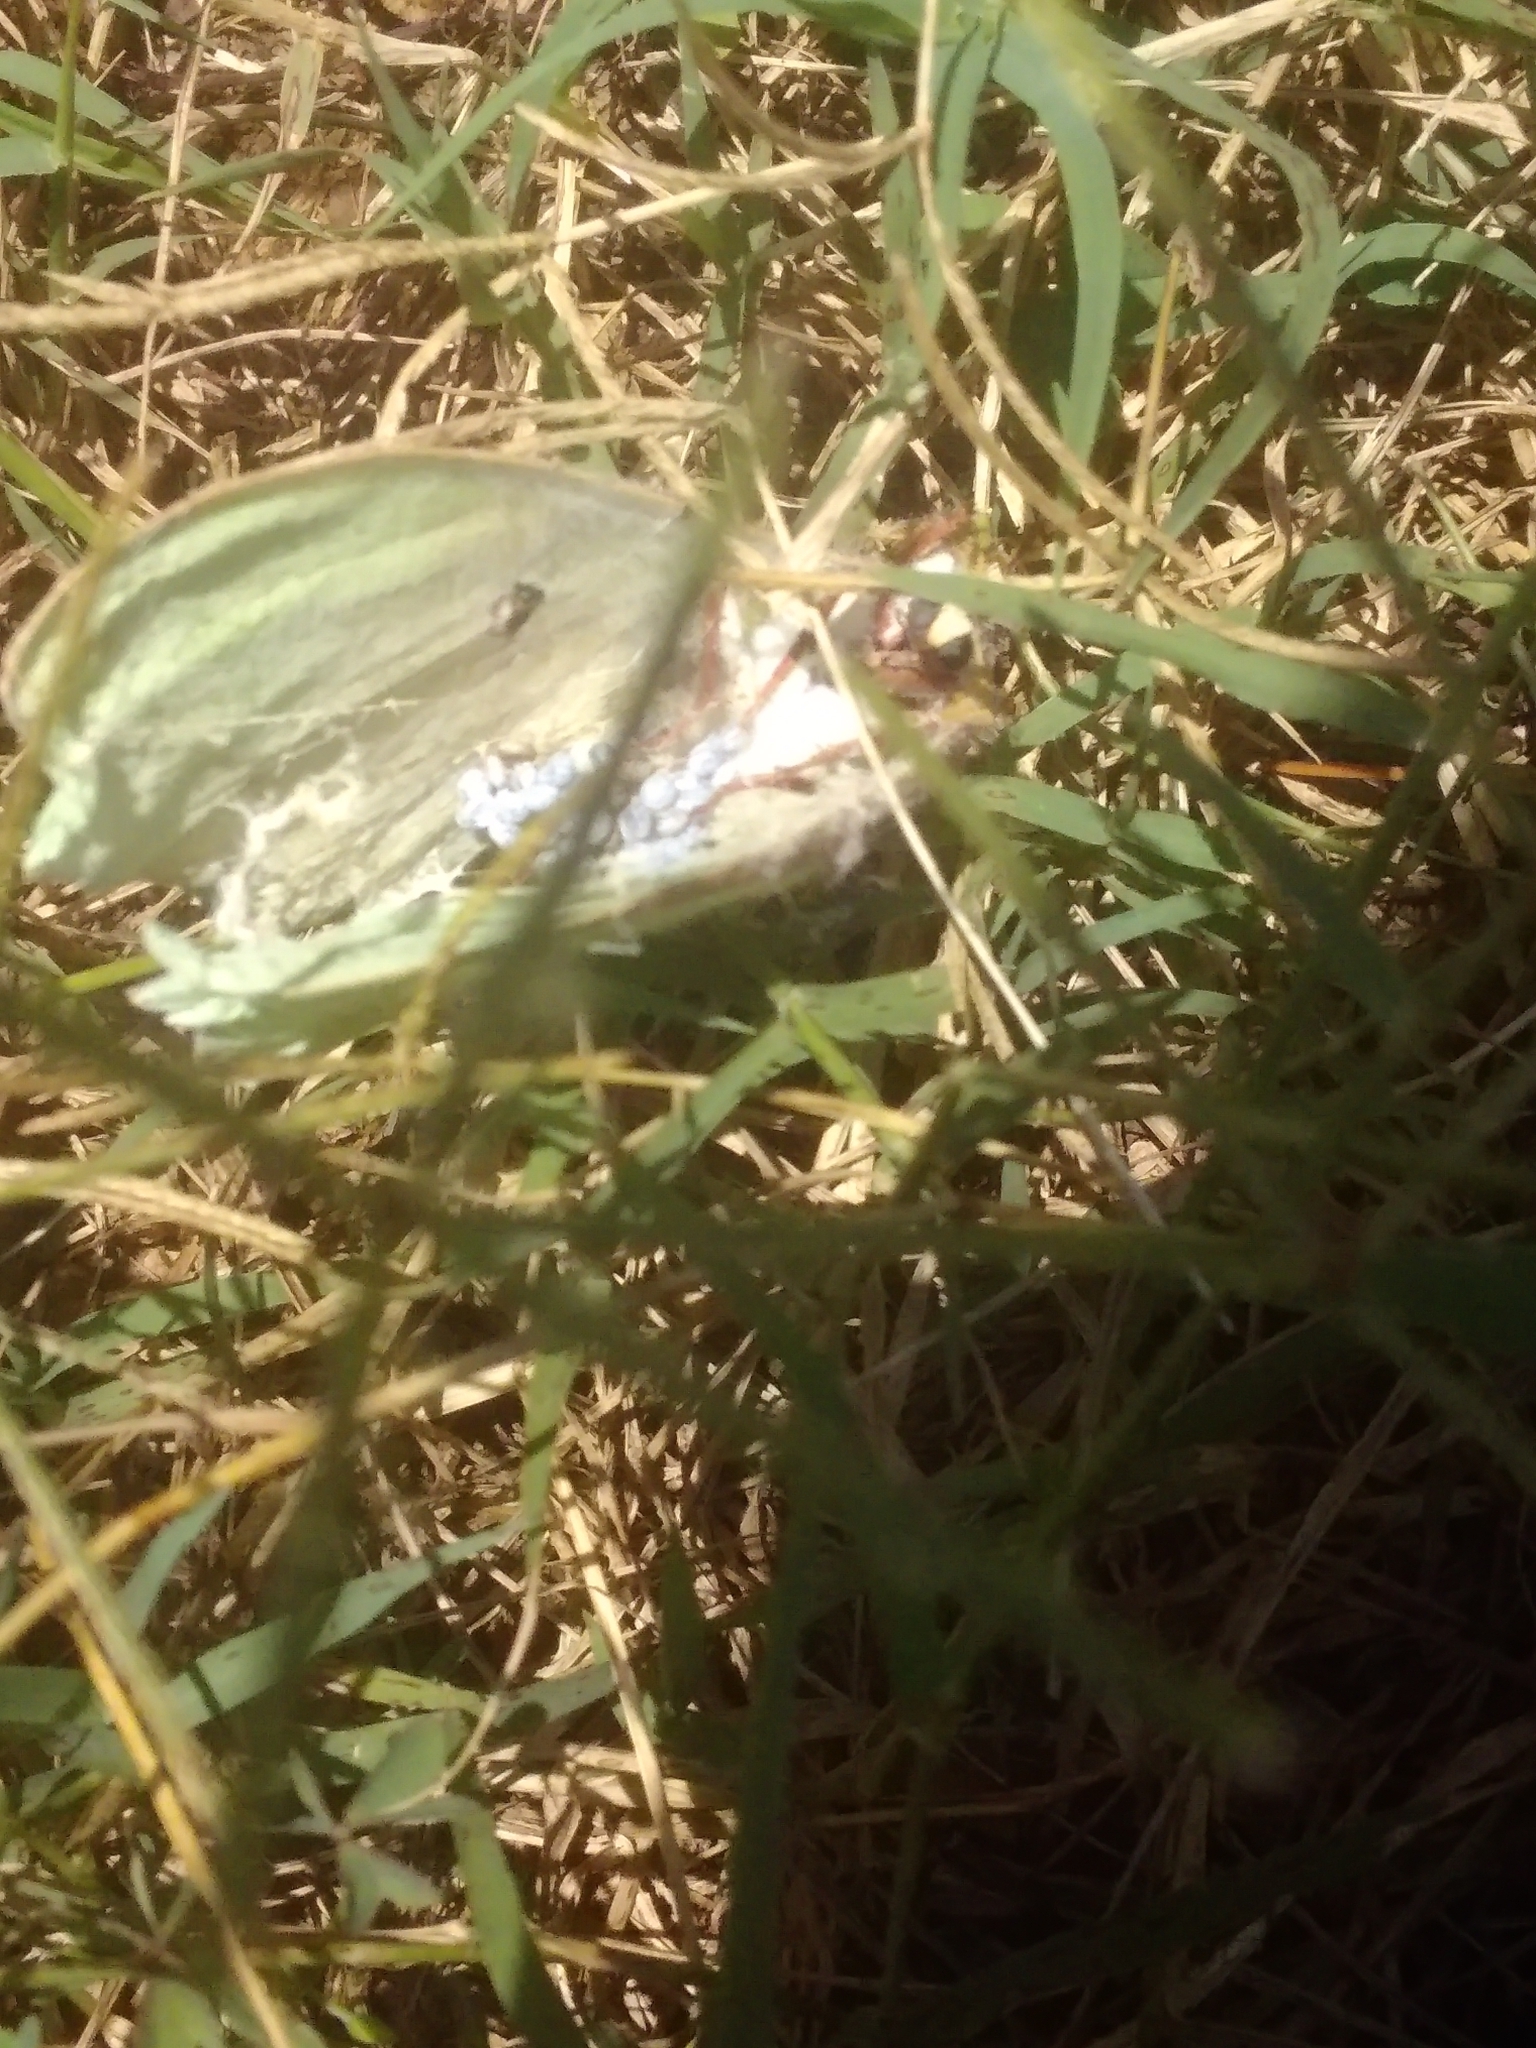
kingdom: Animalia
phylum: Arthropoda
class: Insecta
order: Lepidoptera
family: Saturniidae
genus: Actias
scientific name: Actias luna
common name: Luna moth
